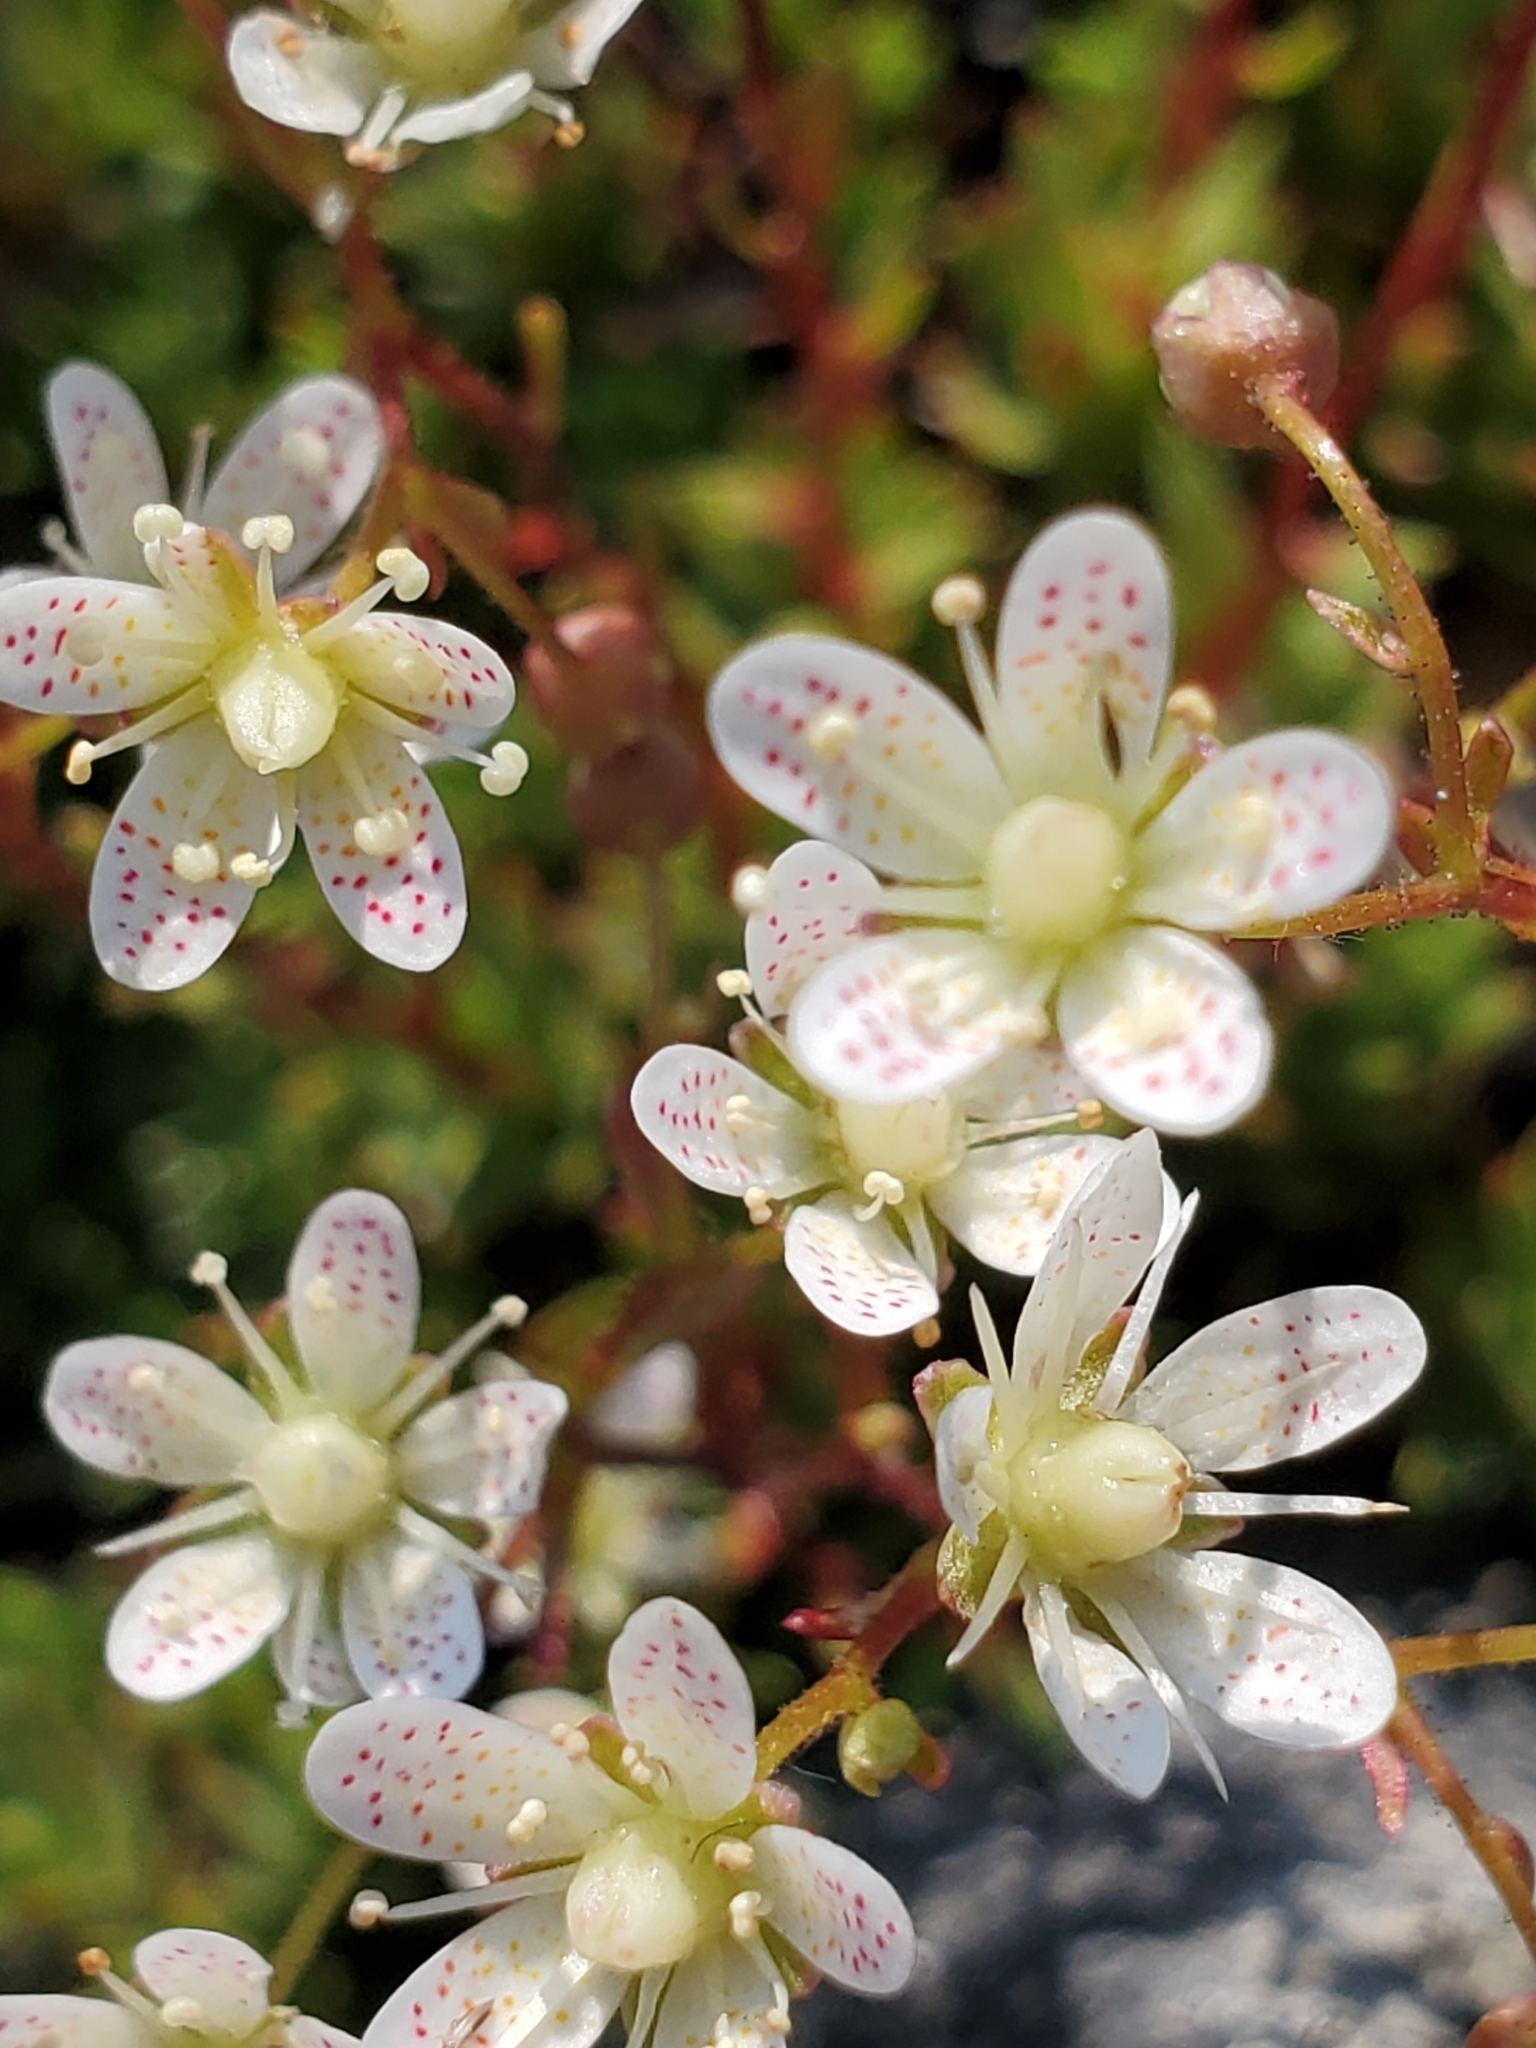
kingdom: Plantae
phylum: Tracheophyta
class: Magnoliopsida
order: Saxifragales
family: Saxifragaceae
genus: Saxifraga
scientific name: Saxifraga bronchialis
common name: Matted saxifrage
